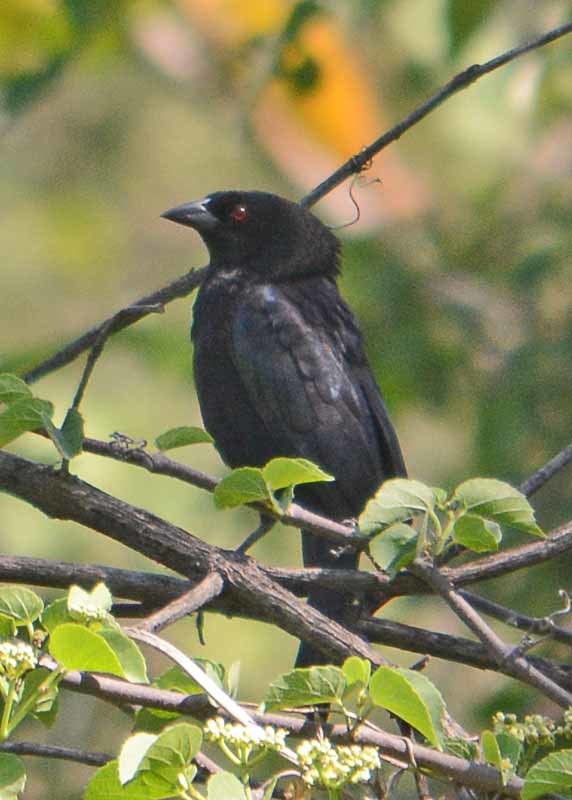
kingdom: Animalia
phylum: Chordata
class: Aves
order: Passeriformes
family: Icteridae
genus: Molothrus
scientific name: Molothrus aeneus
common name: Bronzed cowbird
